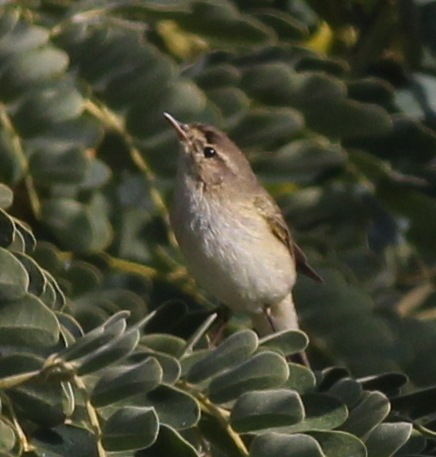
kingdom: Animalia
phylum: Chordata
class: Aves
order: Passeriformes
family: Phylloscopidae
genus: Phylloscopus
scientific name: Phylloscopus collybita
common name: Common chiffchaff
